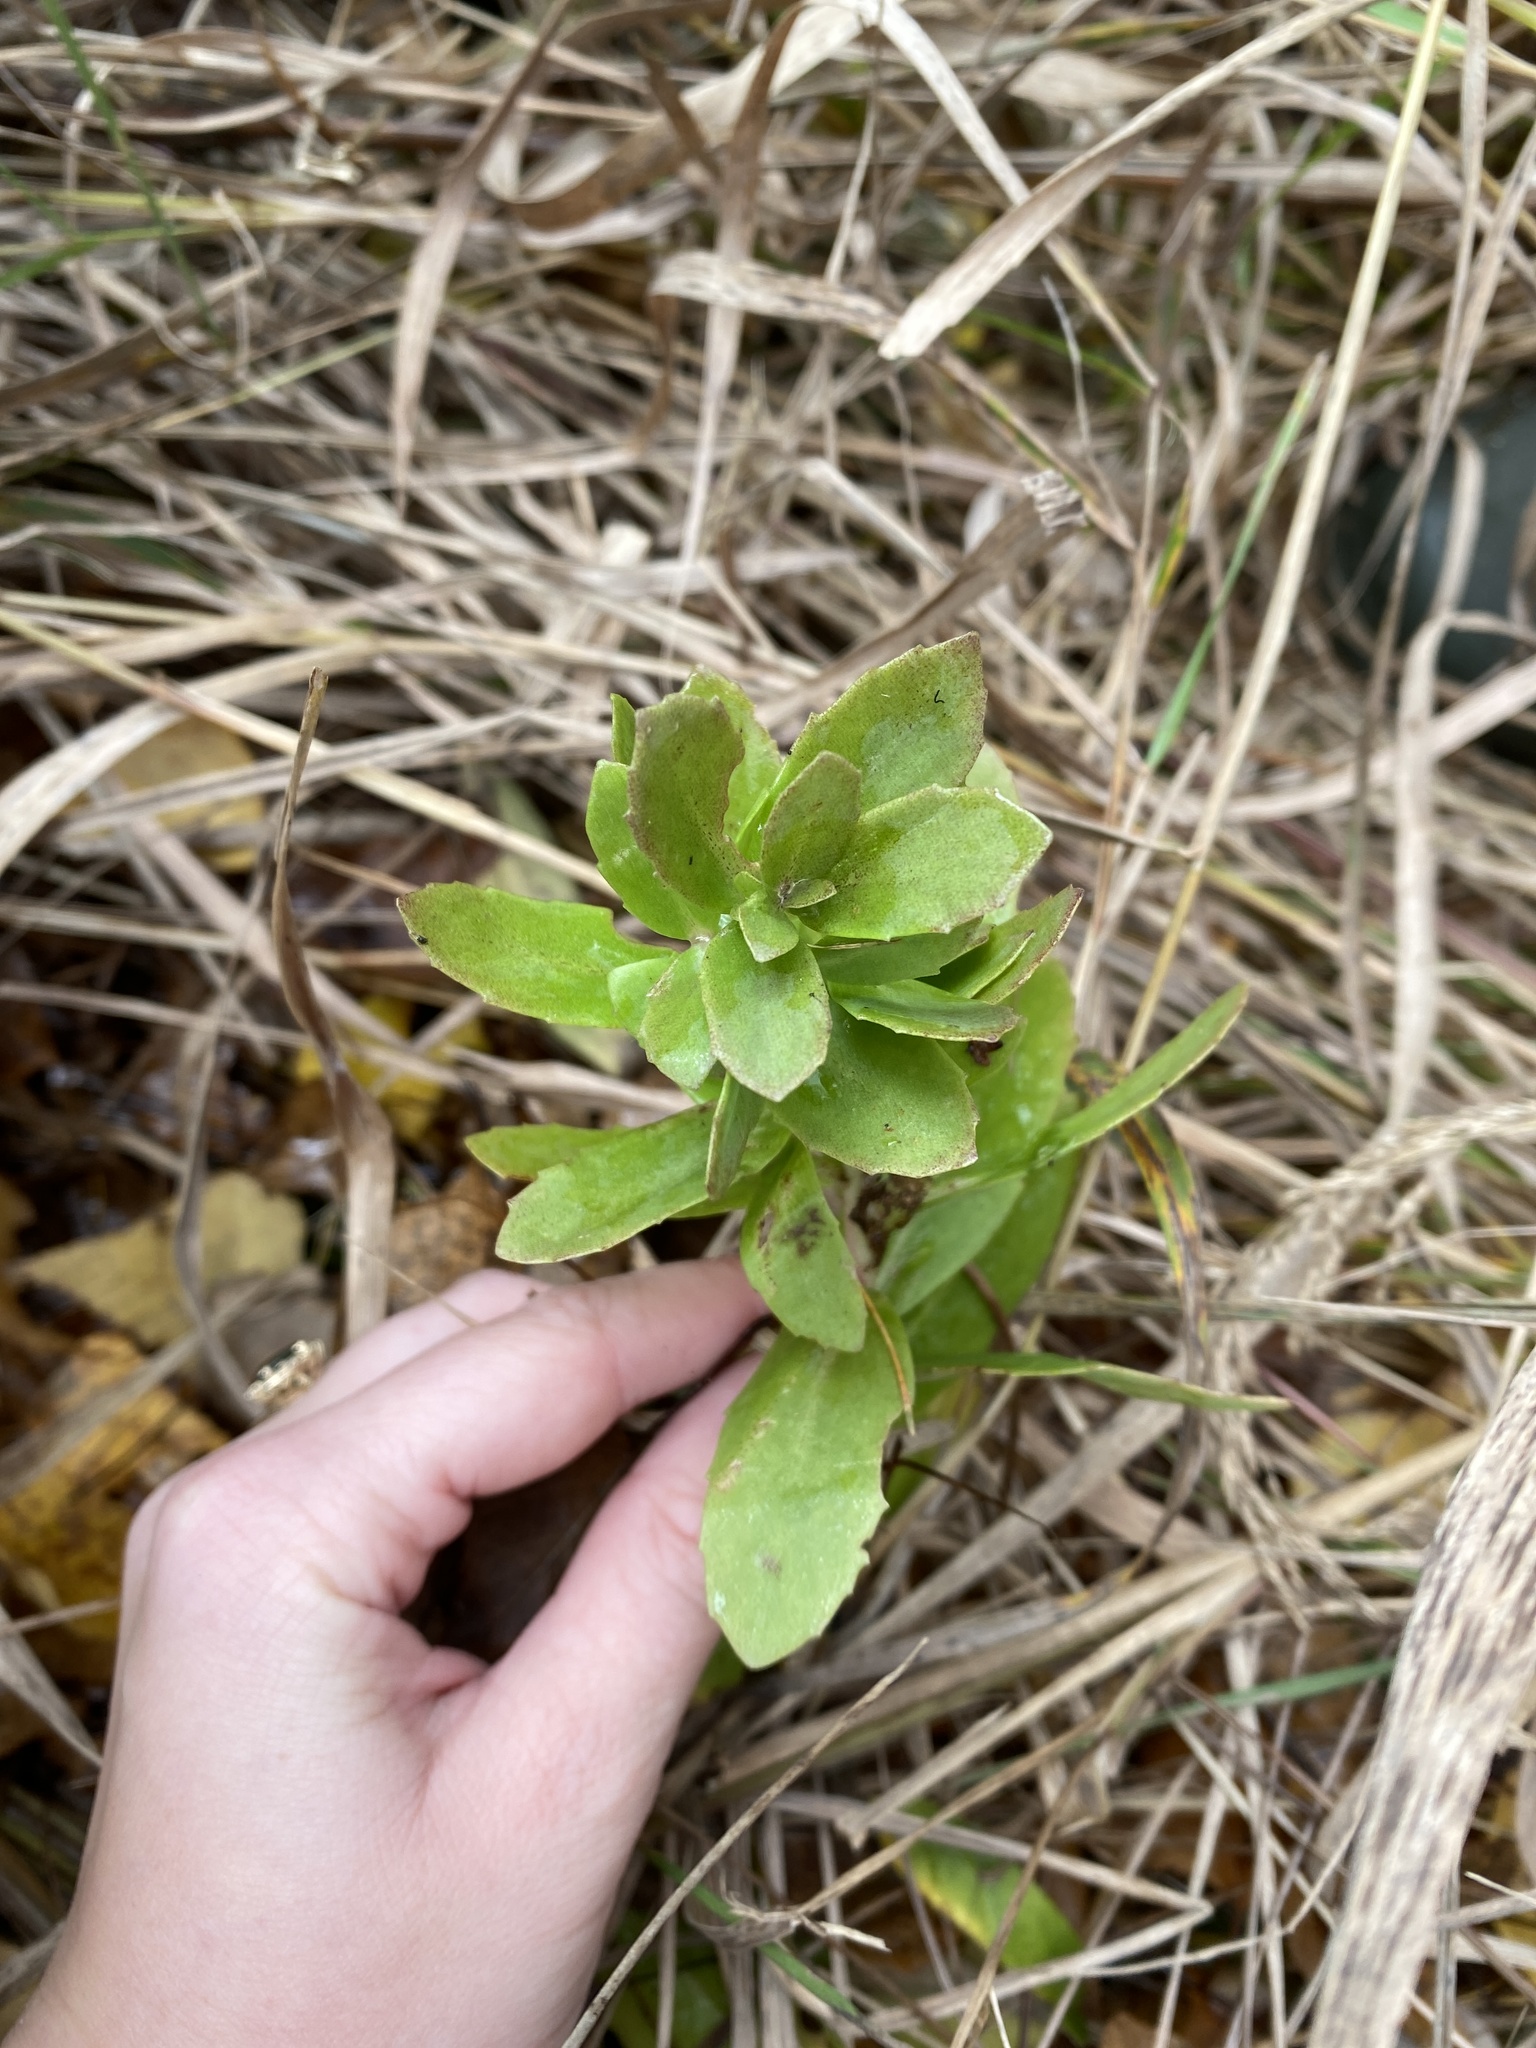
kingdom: Plantae
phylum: Tracheophyta
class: Magnoliopsida
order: Saxifragales
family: Crassulaceae
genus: Hylotelephium
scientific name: Hylotelephium telephium
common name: Live-forever
